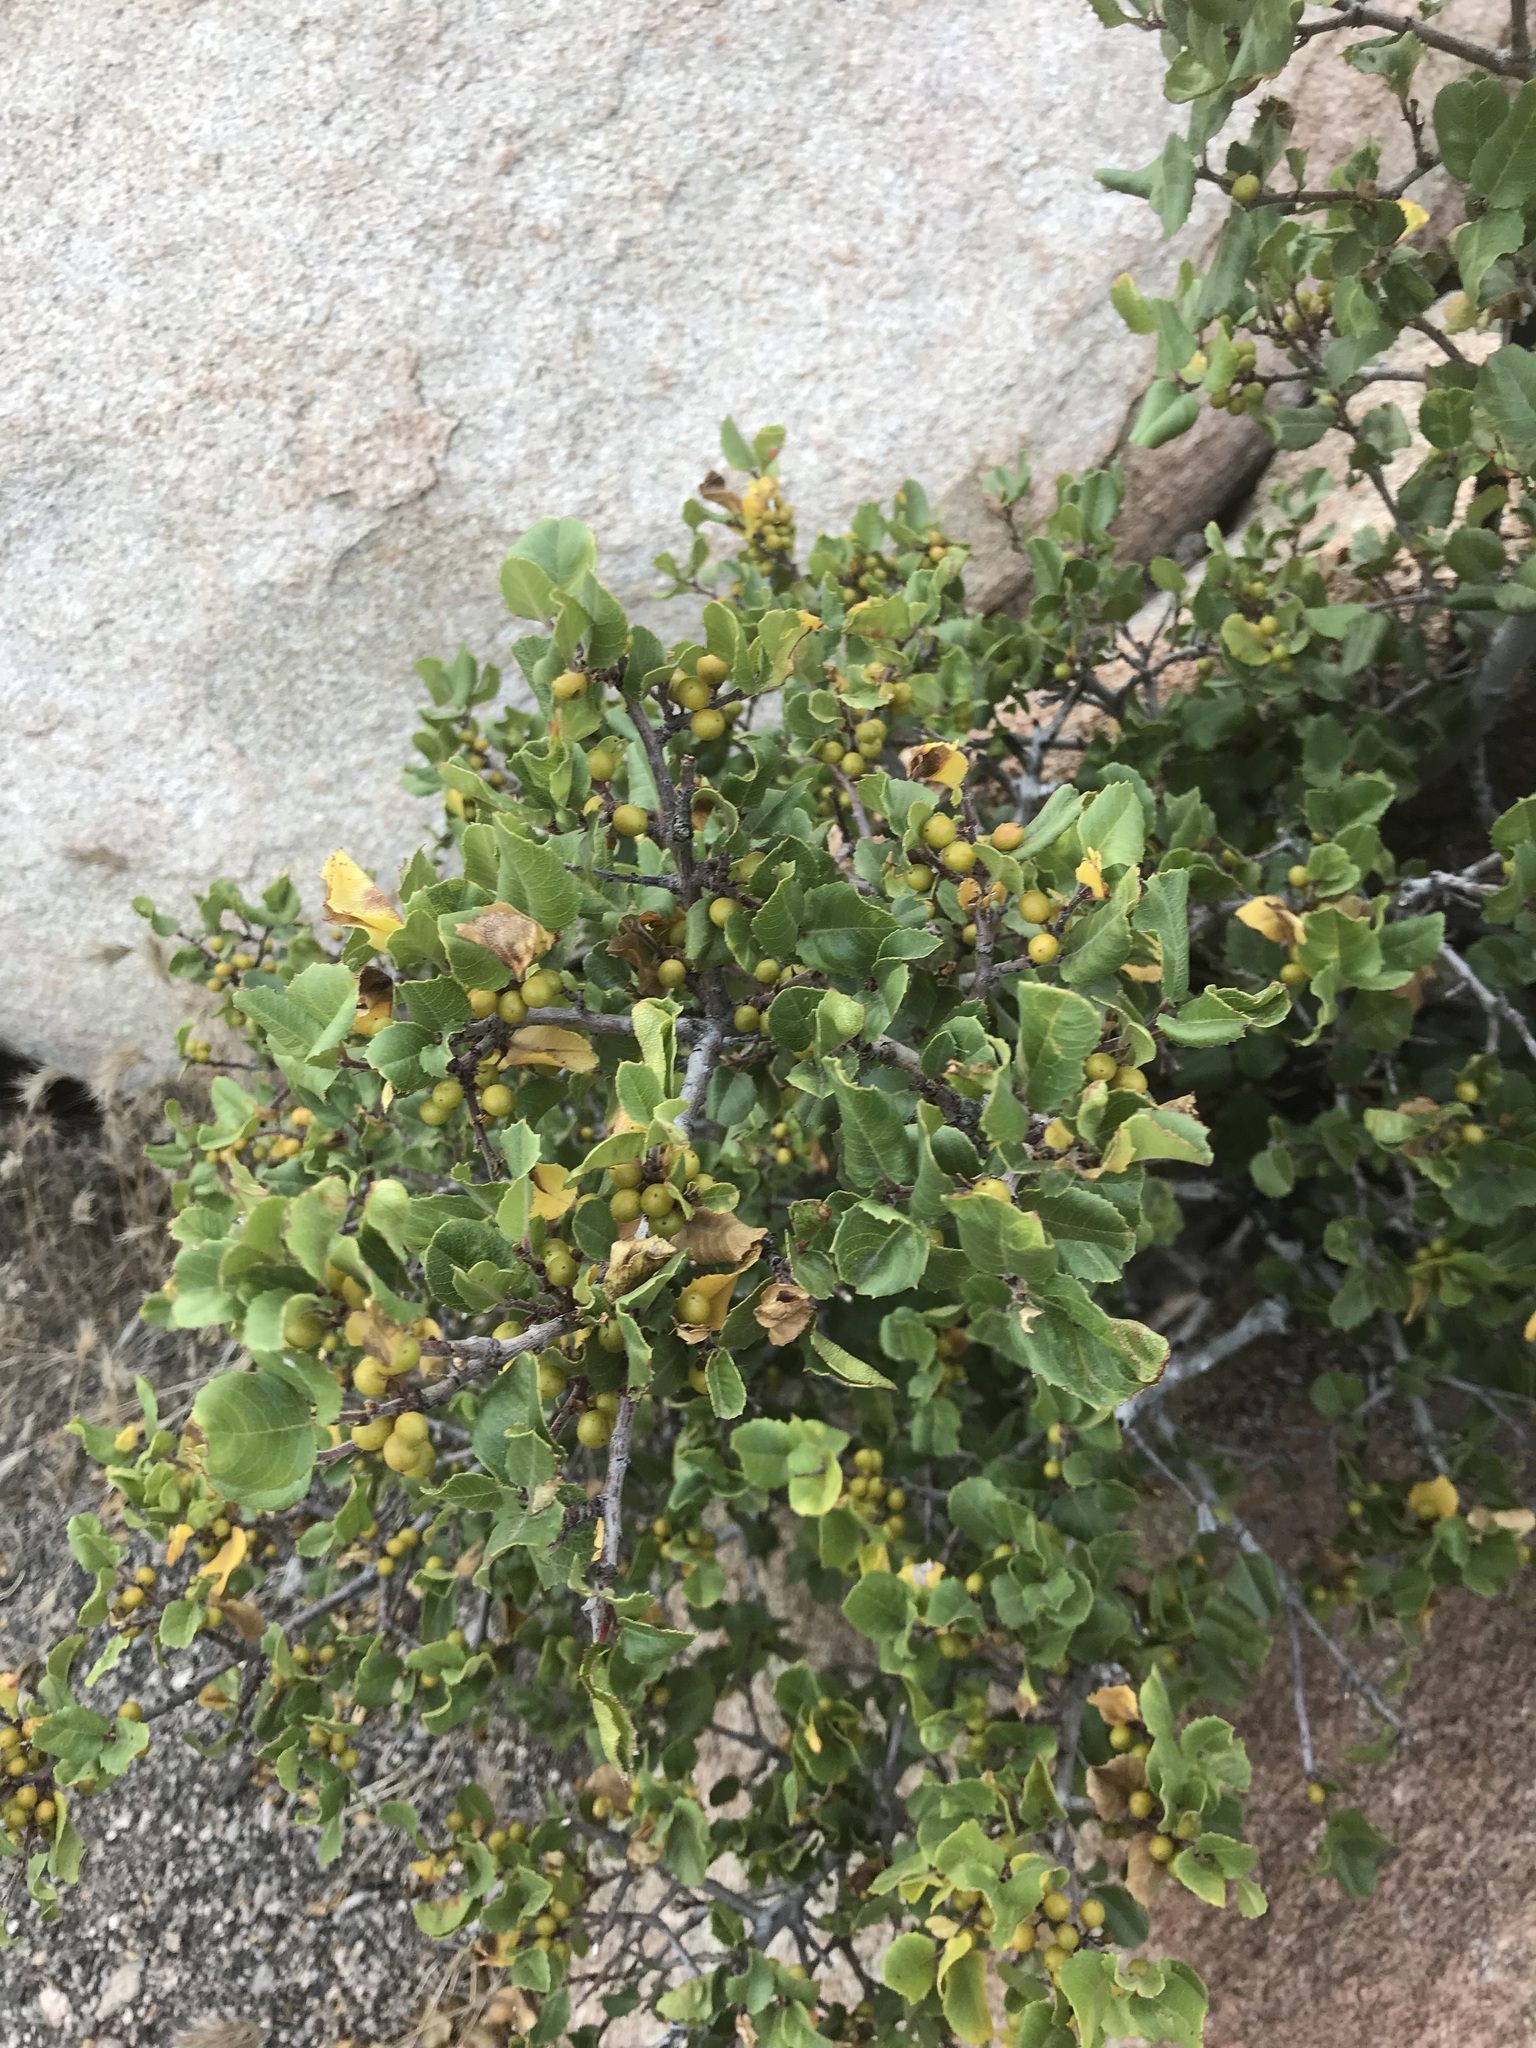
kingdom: Plantae
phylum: Tracheophyta
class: Magnoliopsida
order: Rosales
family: Rhamnaceae
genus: Endotropis
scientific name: Endotropis crocea
